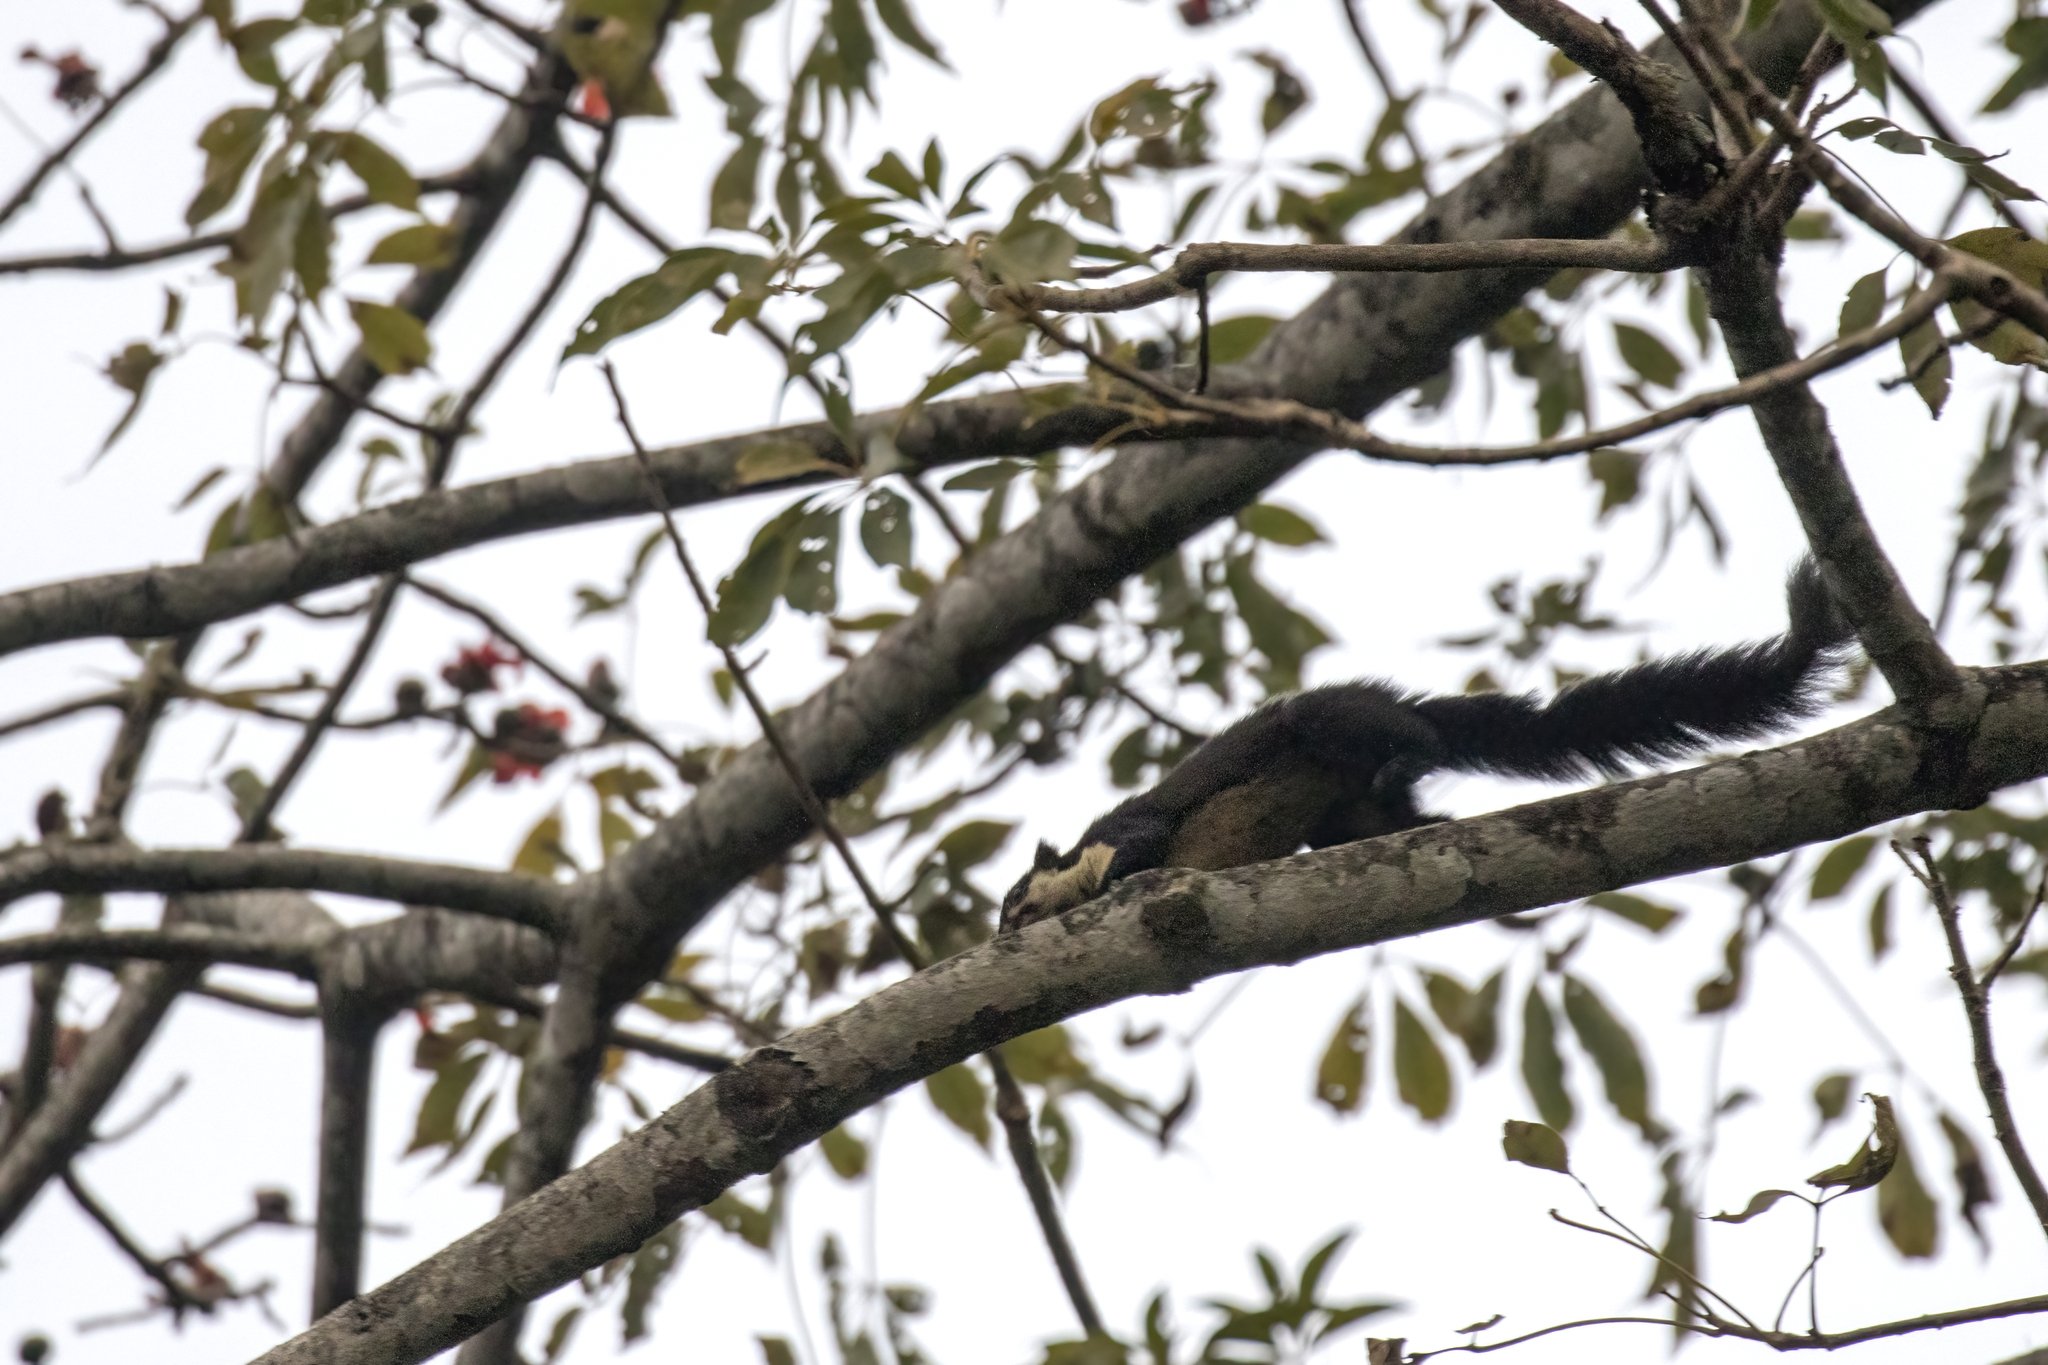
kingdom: Animalia
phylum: Chordata
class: Mammalia
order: Rodentia
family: Sciuridae
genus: Ratufa
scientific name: Ratufa bicolor
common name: Black giant squirrel
